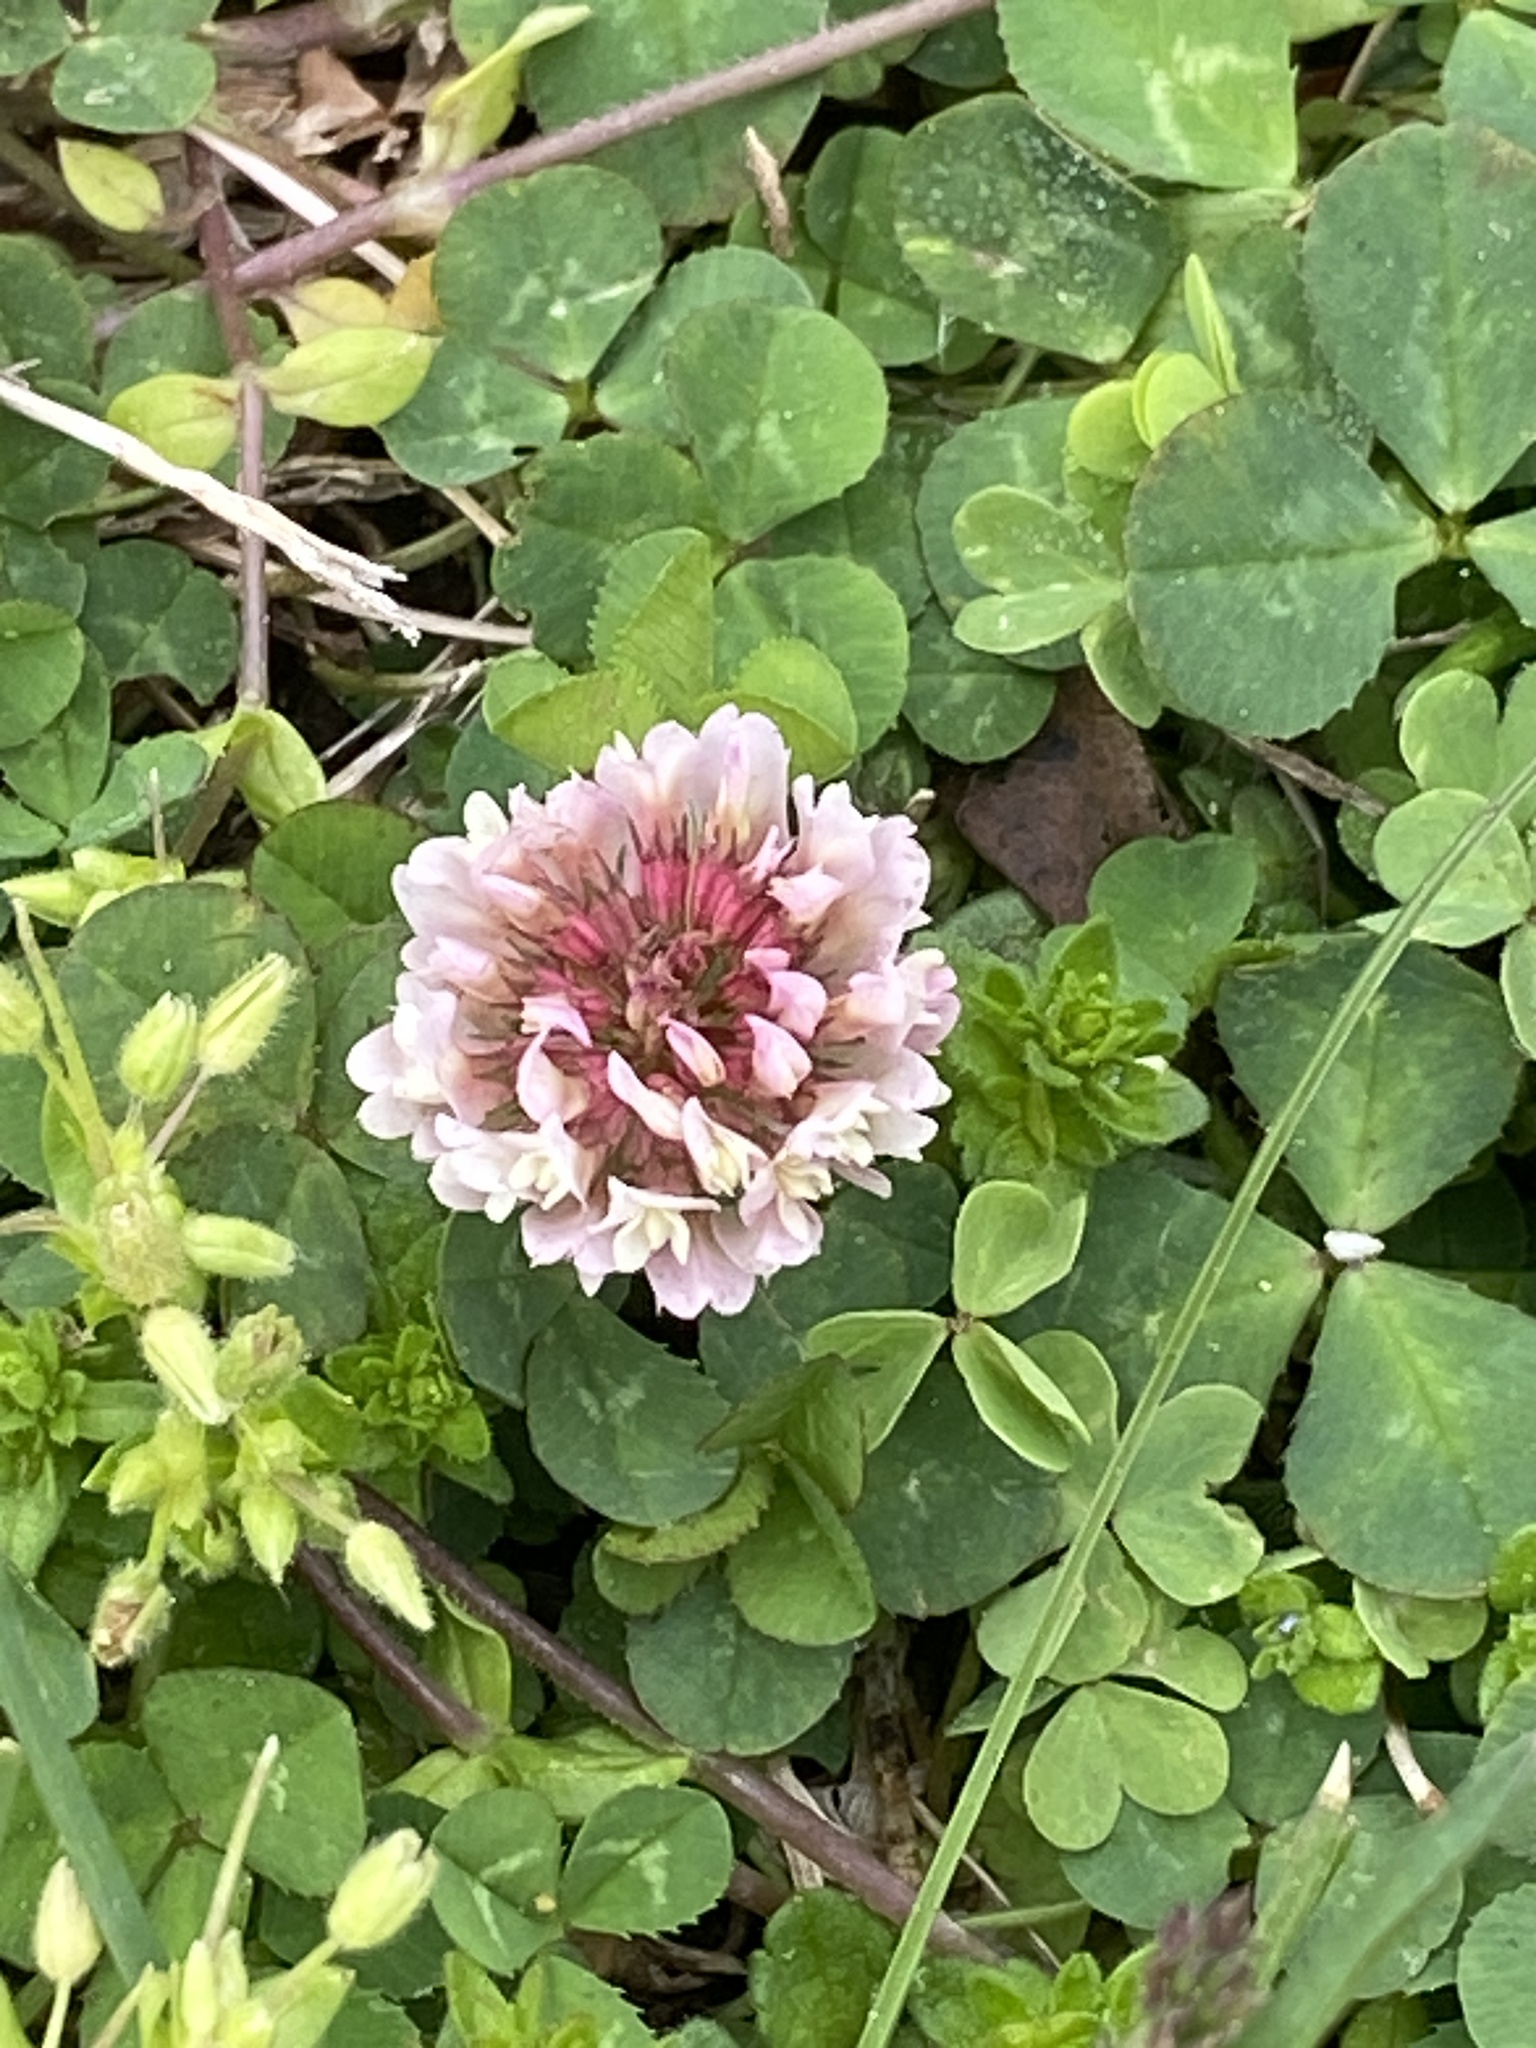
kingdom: Plantae
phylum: Tracheophyta
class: Magnoliopsida
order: Fabales
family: Fabaceae
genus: Trifolium
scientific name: Trifolium repens
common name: White clover
